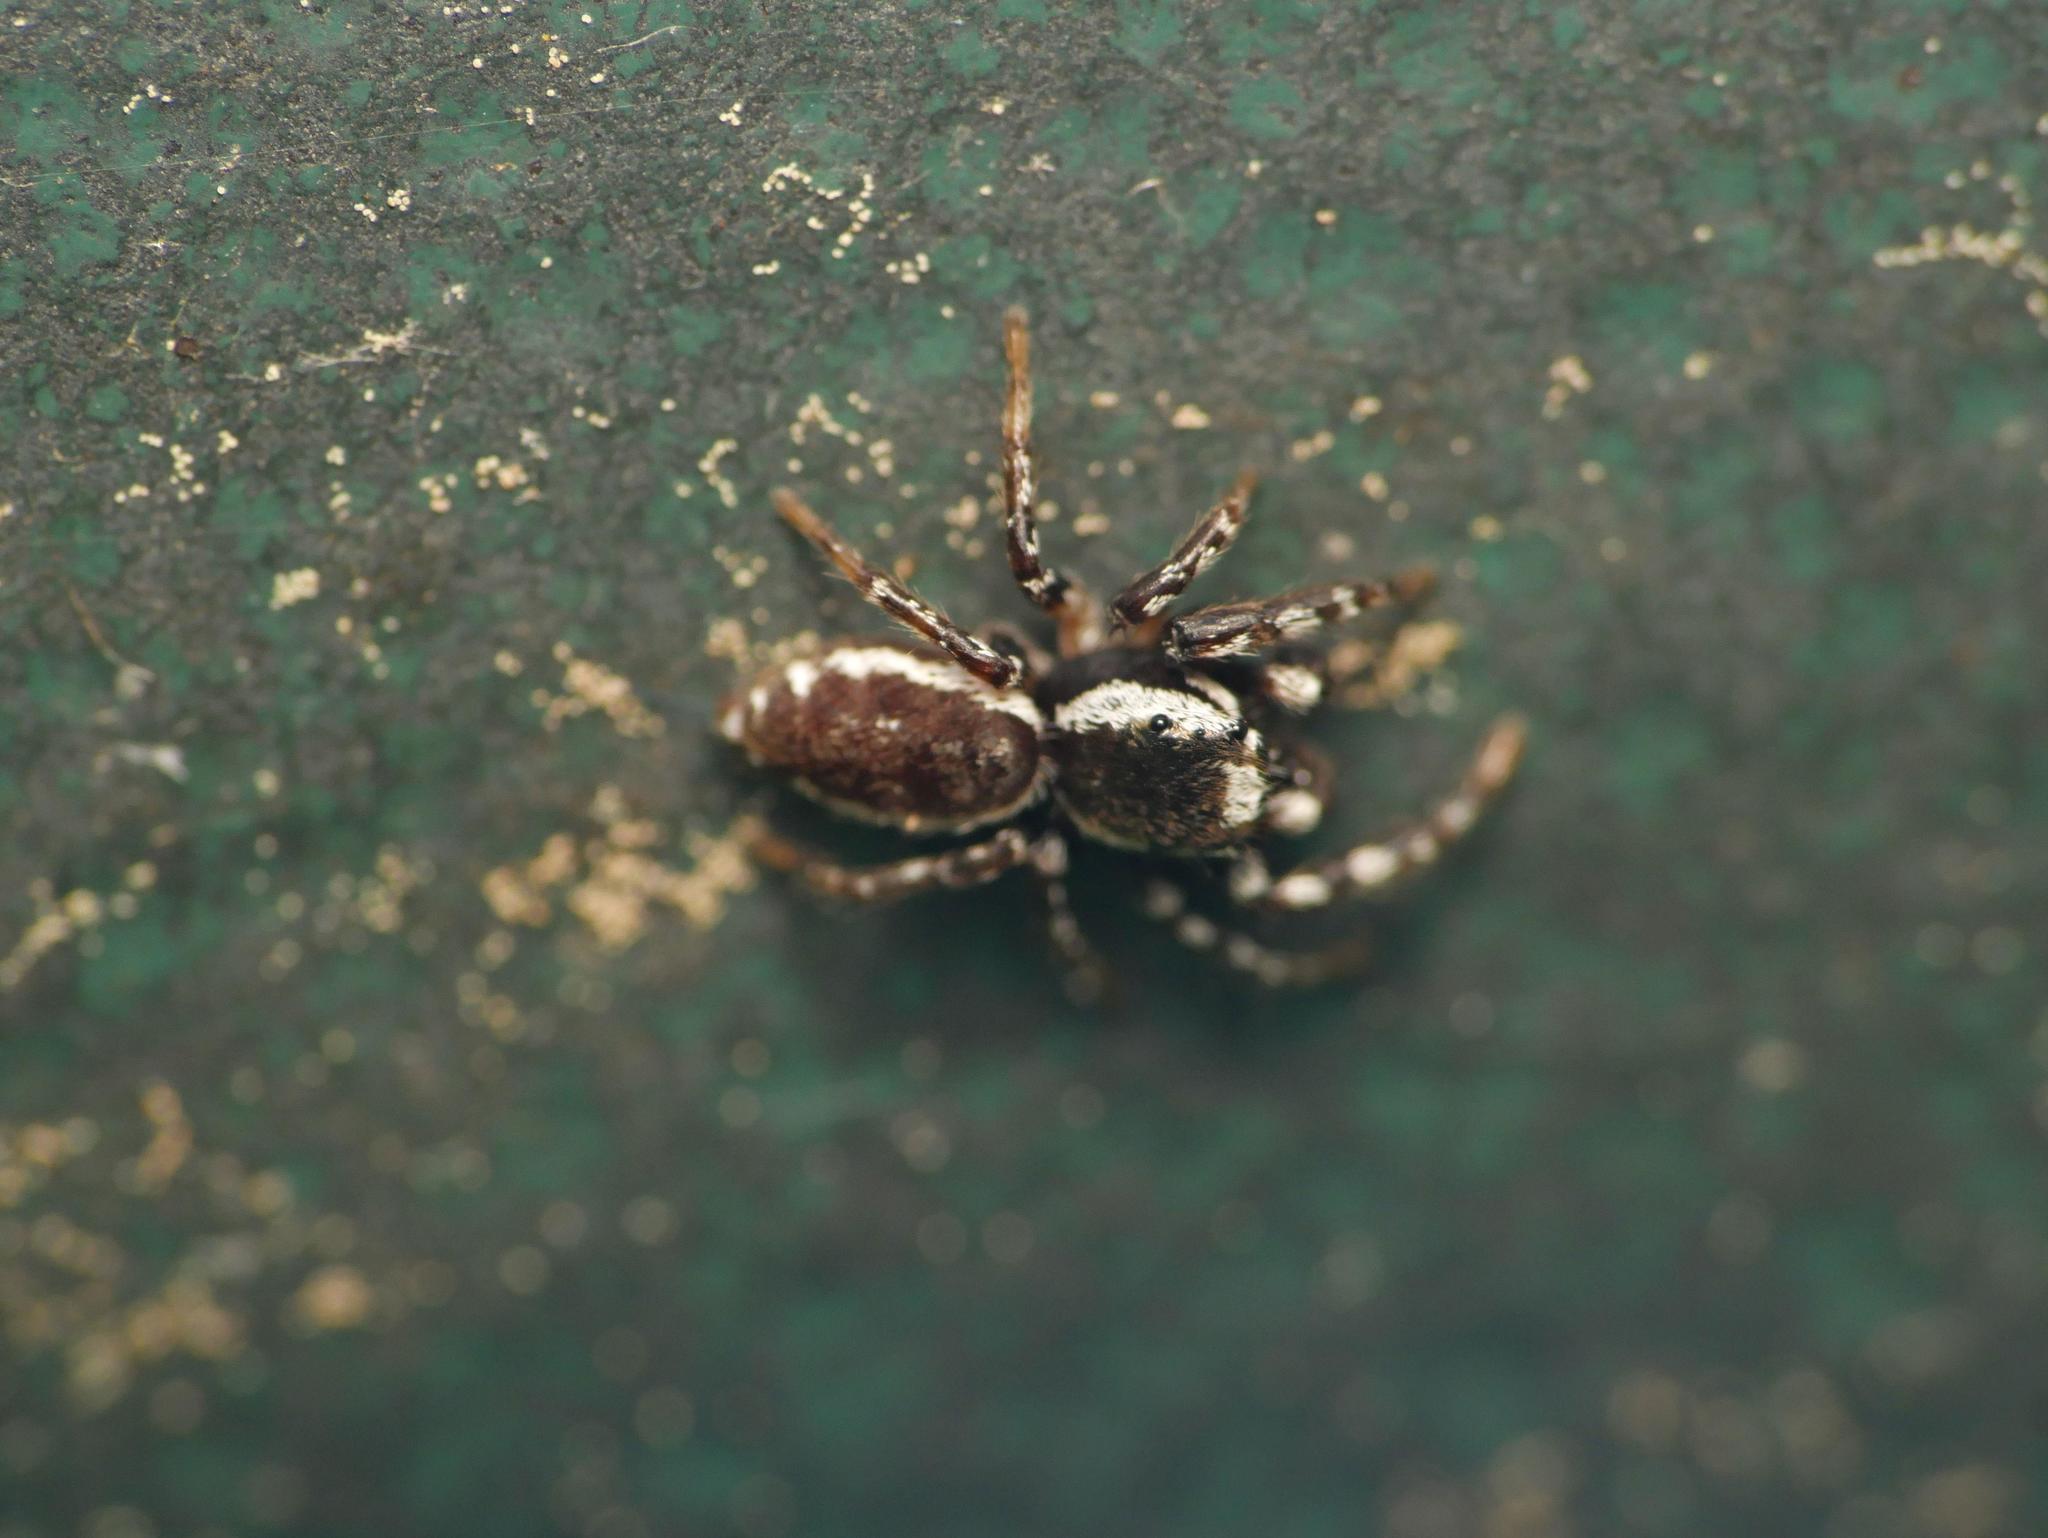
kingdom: Animalia
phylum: Arthropoda
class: Arachnida
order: Araneae
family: Salticidae
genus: Pelegrina
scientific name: Pelegrina proterva
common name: Common white-cheeked jumping spider
